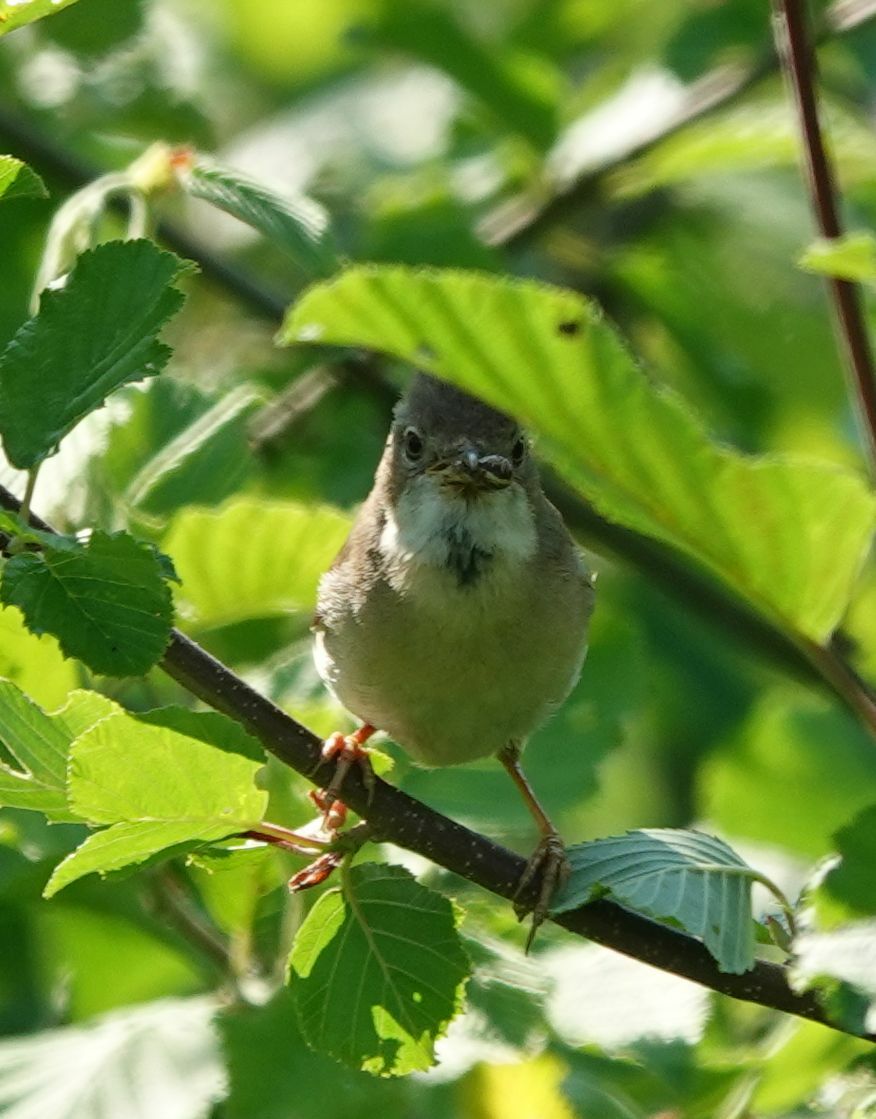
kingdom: Animalia
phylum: Chordata
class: Aves
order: Passeriformes
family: Sylviidae
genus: Sylvia
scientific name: Sylvia communis
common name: Common whitethroat
